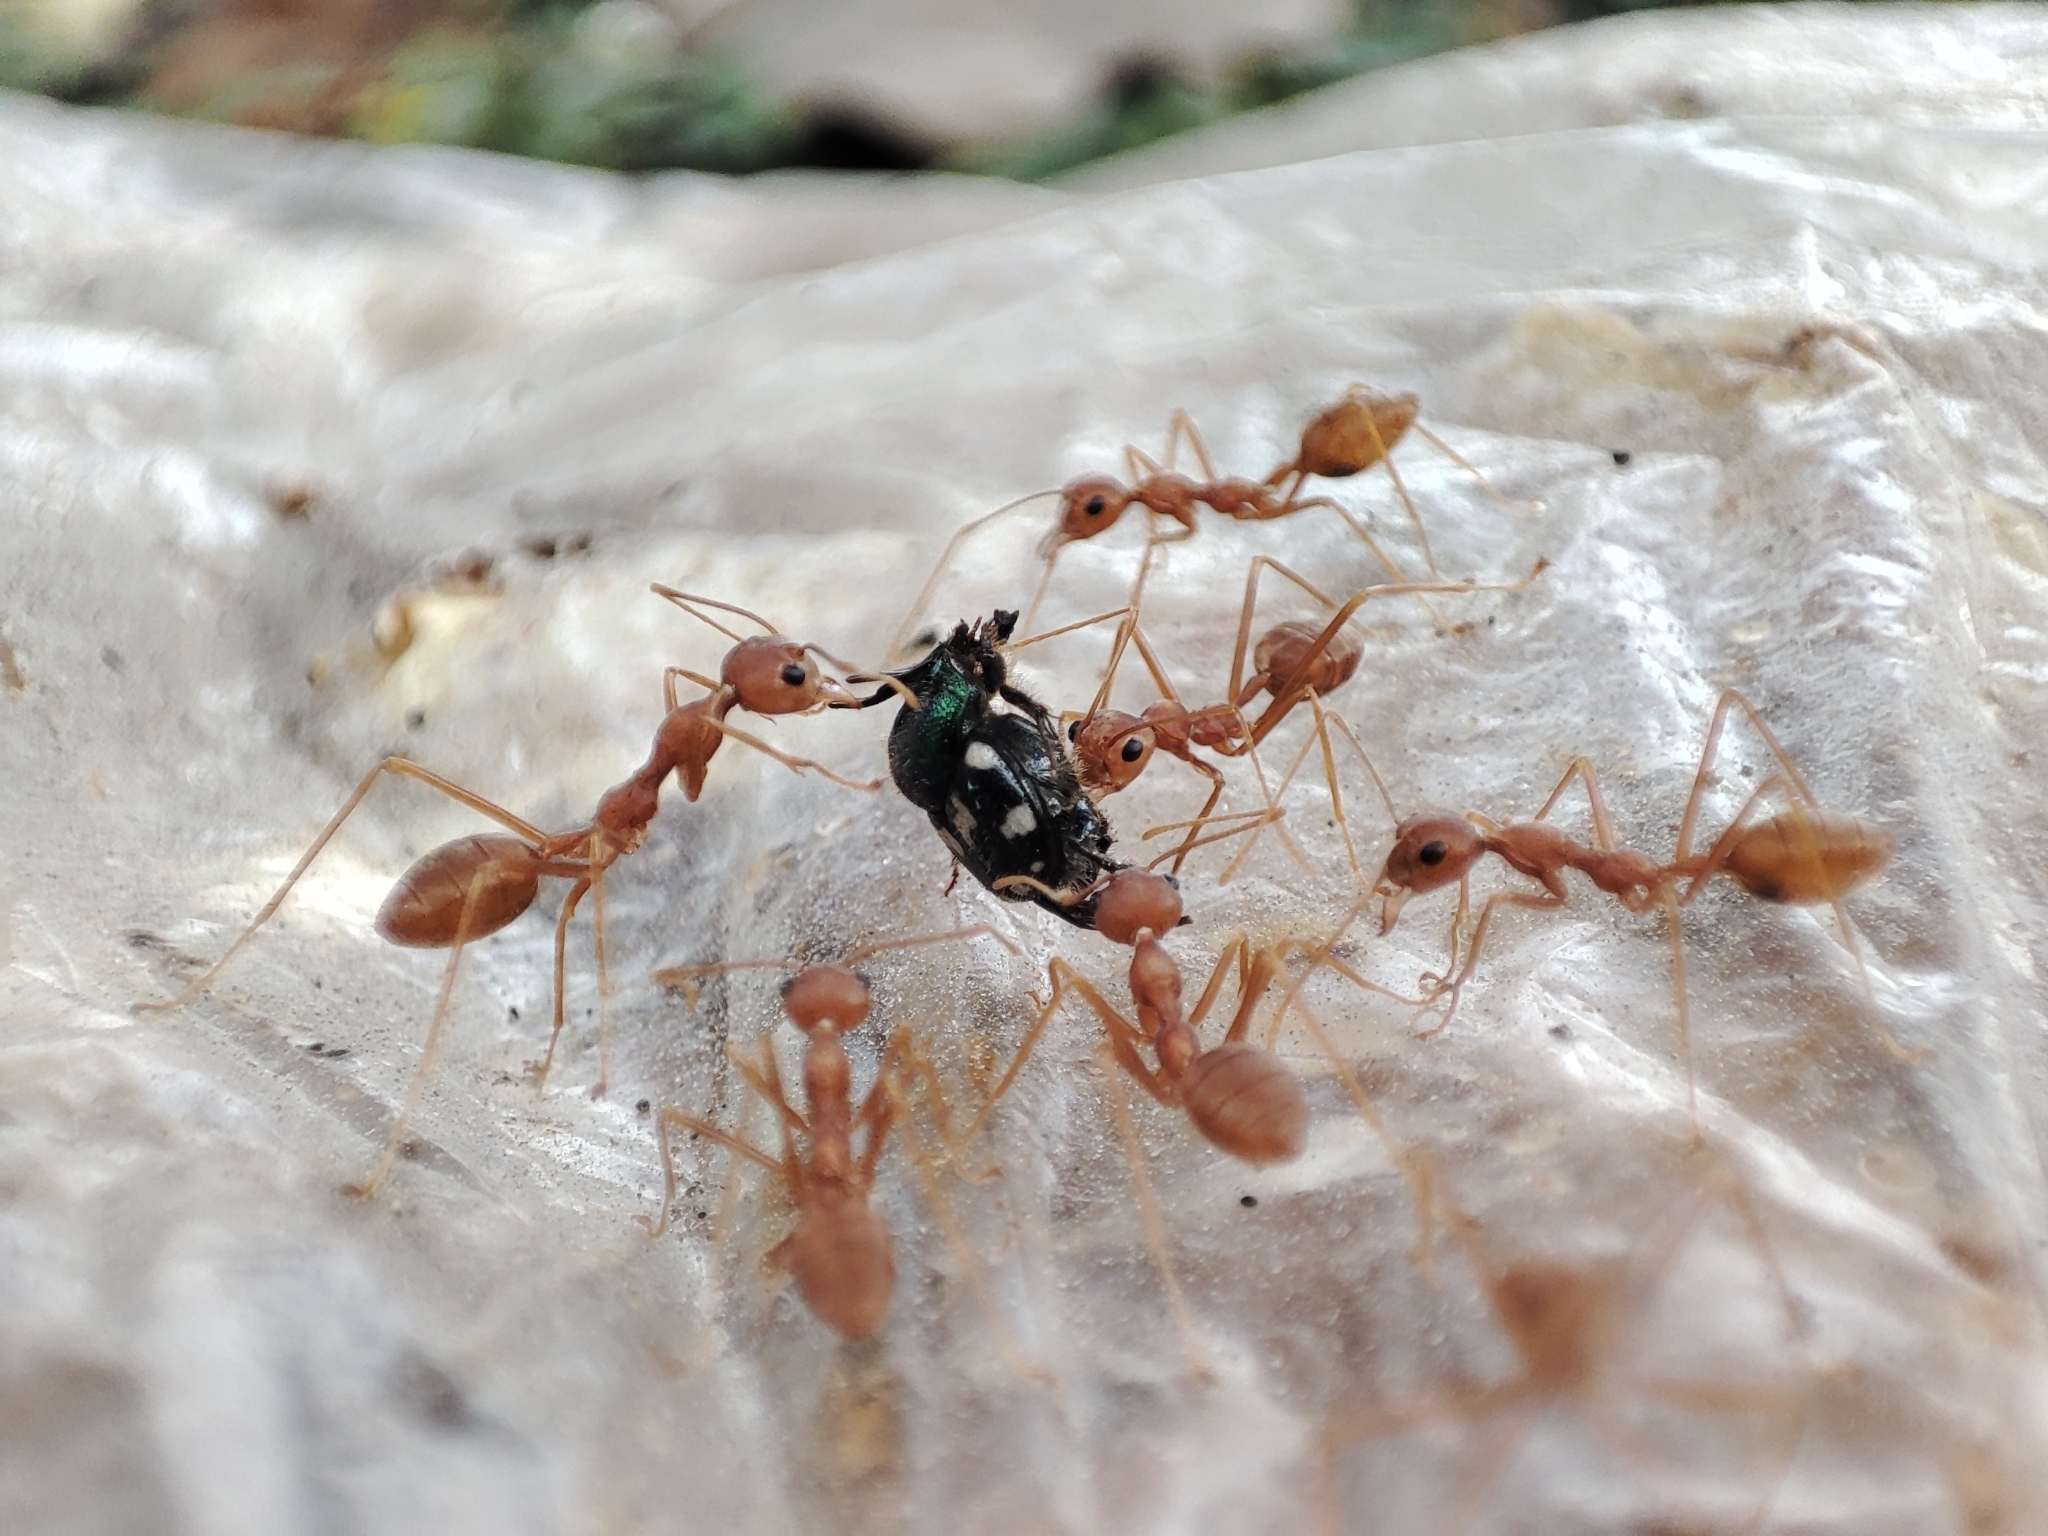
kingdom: Animalia
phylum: Arthropoda
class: Insecta
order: Hymenoptera
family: Formicidae
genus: Oecophylla
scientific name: Oecophylla smaragdina
